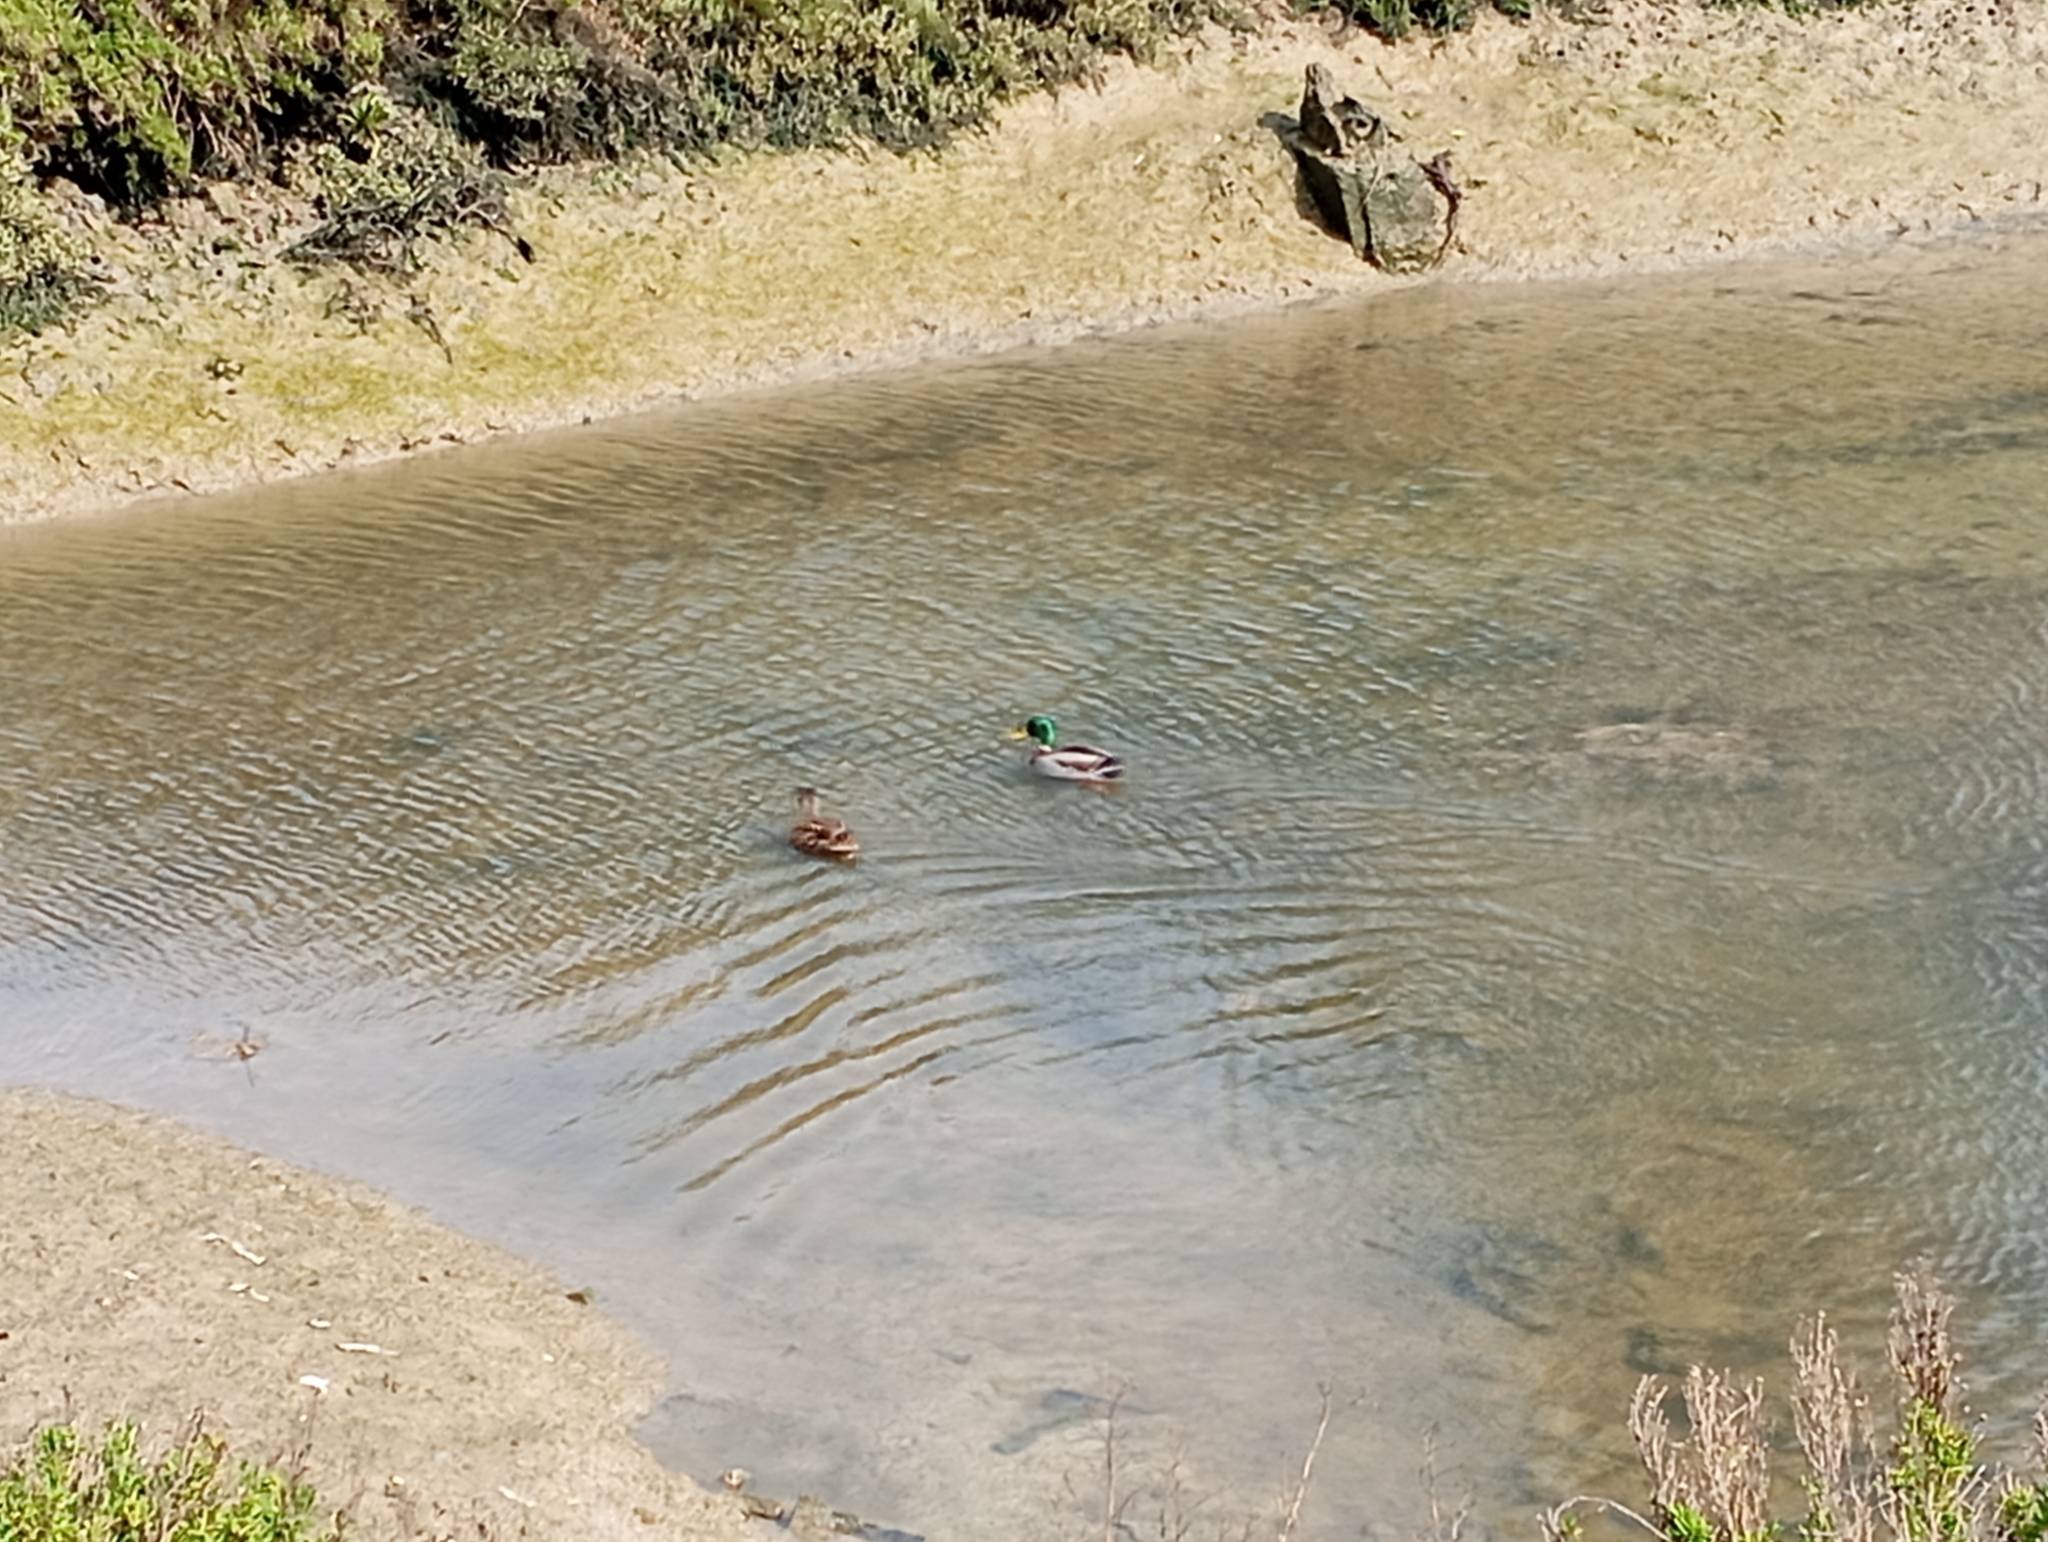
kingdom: Animalia
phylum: Chordata
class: Aves
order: Anseriformes
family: Anatidae
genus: Anas
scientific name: Anas platyrhynchos
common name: Mallard
